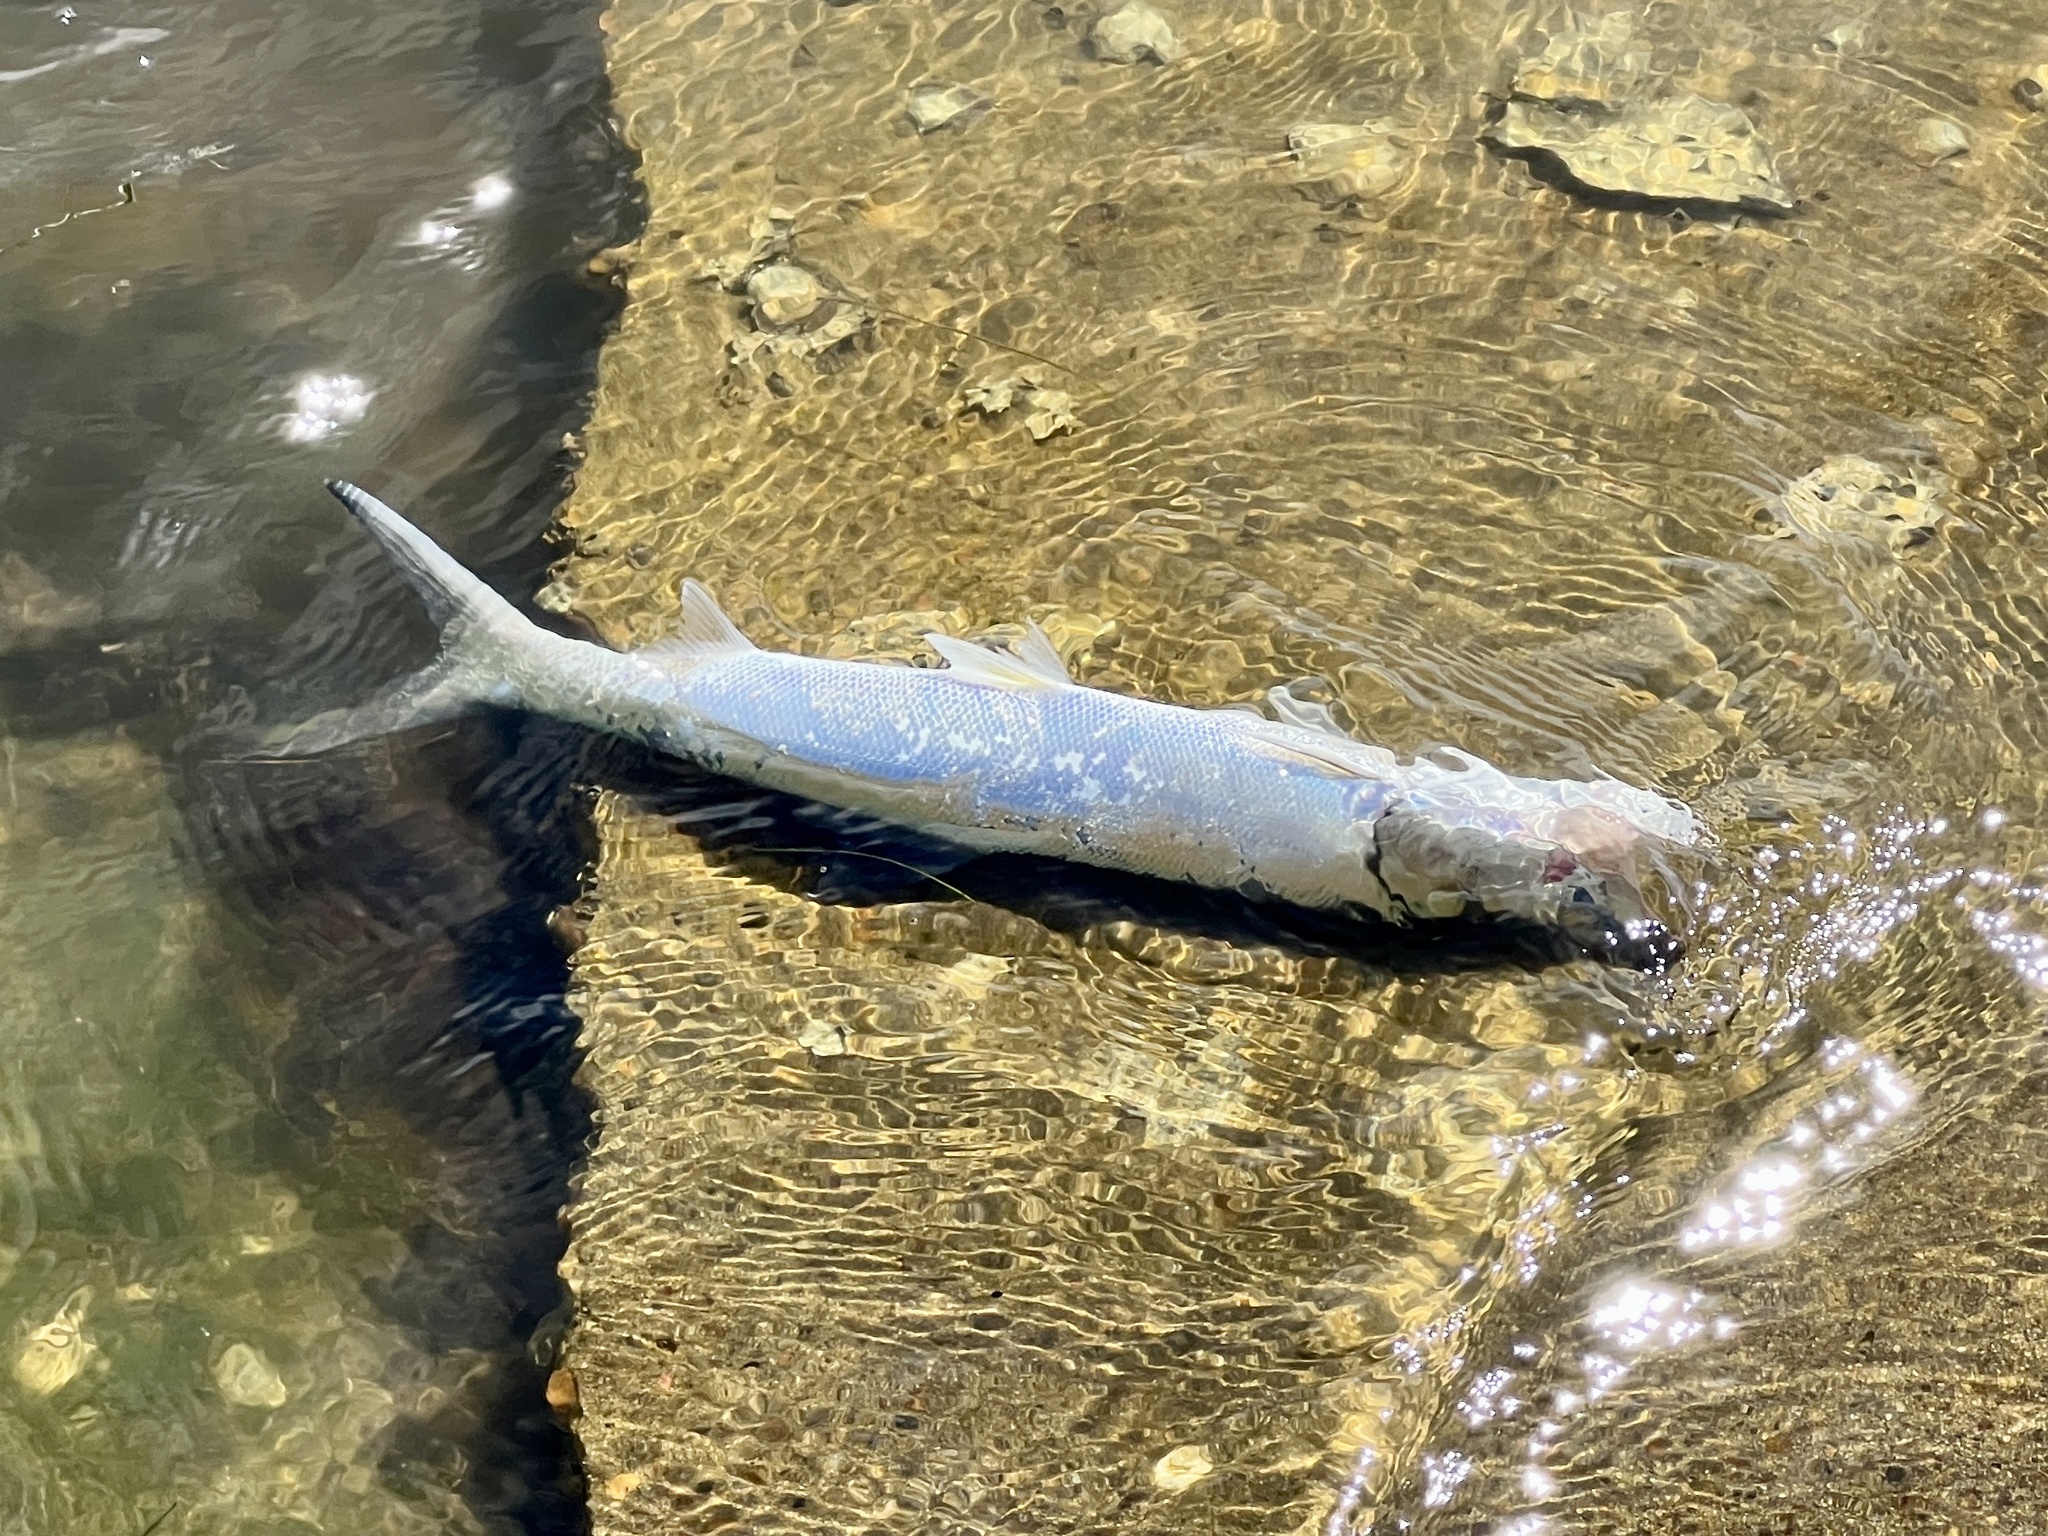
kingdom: Animalia
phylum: Chordata
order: Elopiformes
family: Elopidae
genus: Elops
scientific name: Elops saurus
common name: Ladyfish
